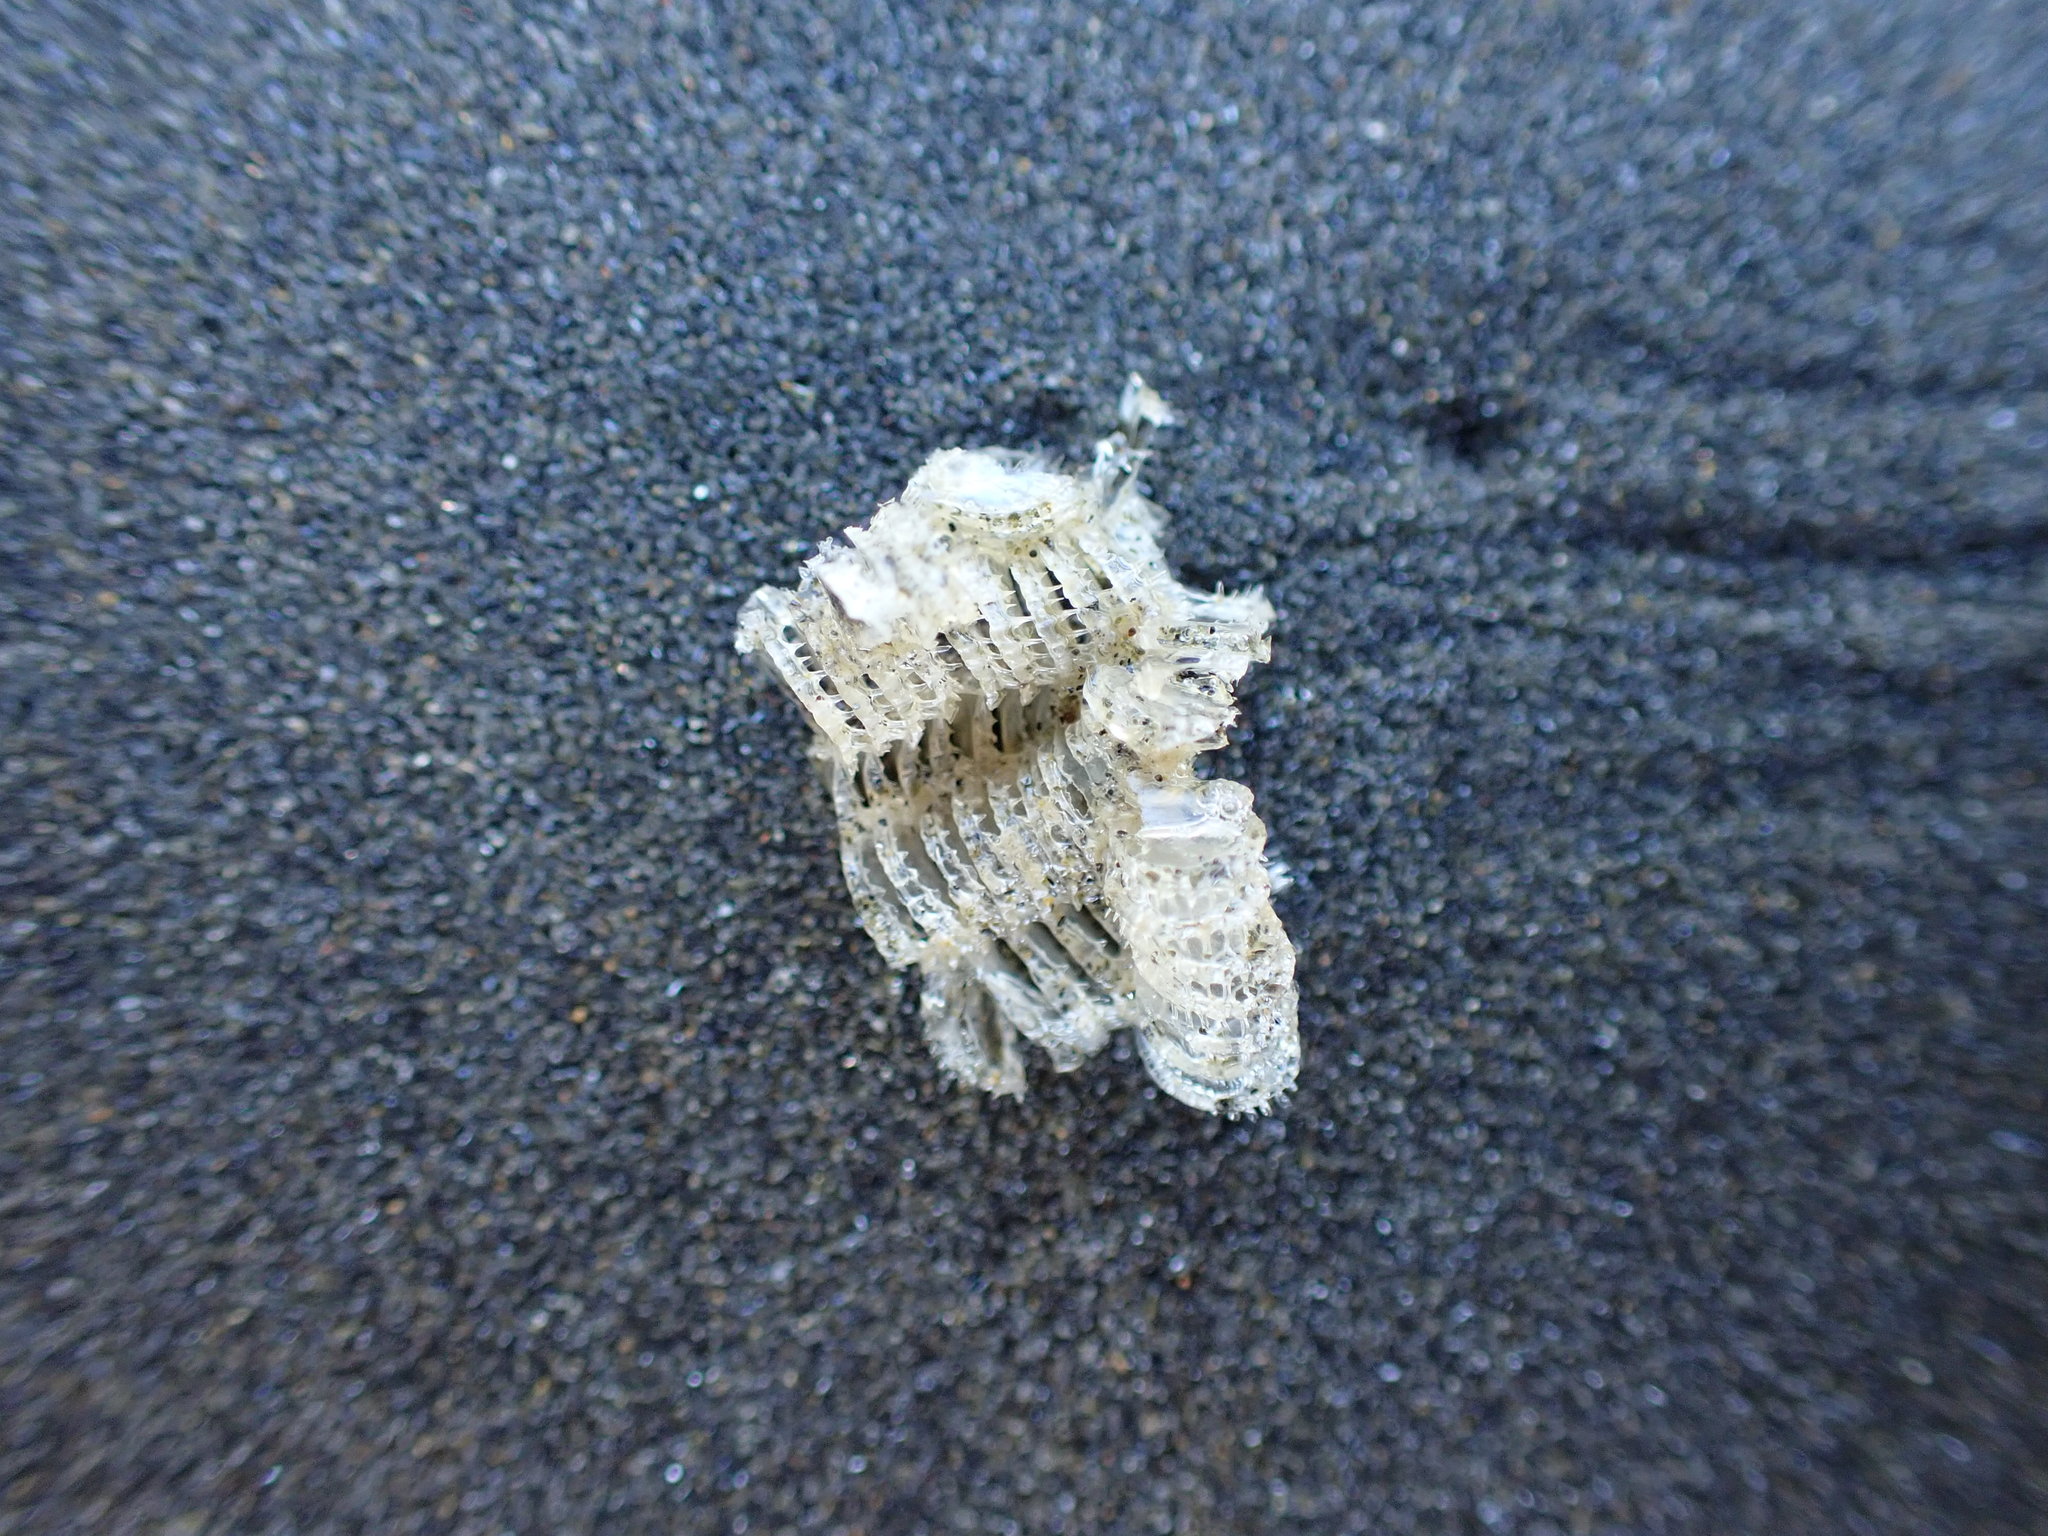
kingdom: Animalia
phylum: Mollusca
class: Gastropoda
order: Neogastropoda
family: Muricidae
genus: Poirieria
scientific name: Poirieria zelandica
